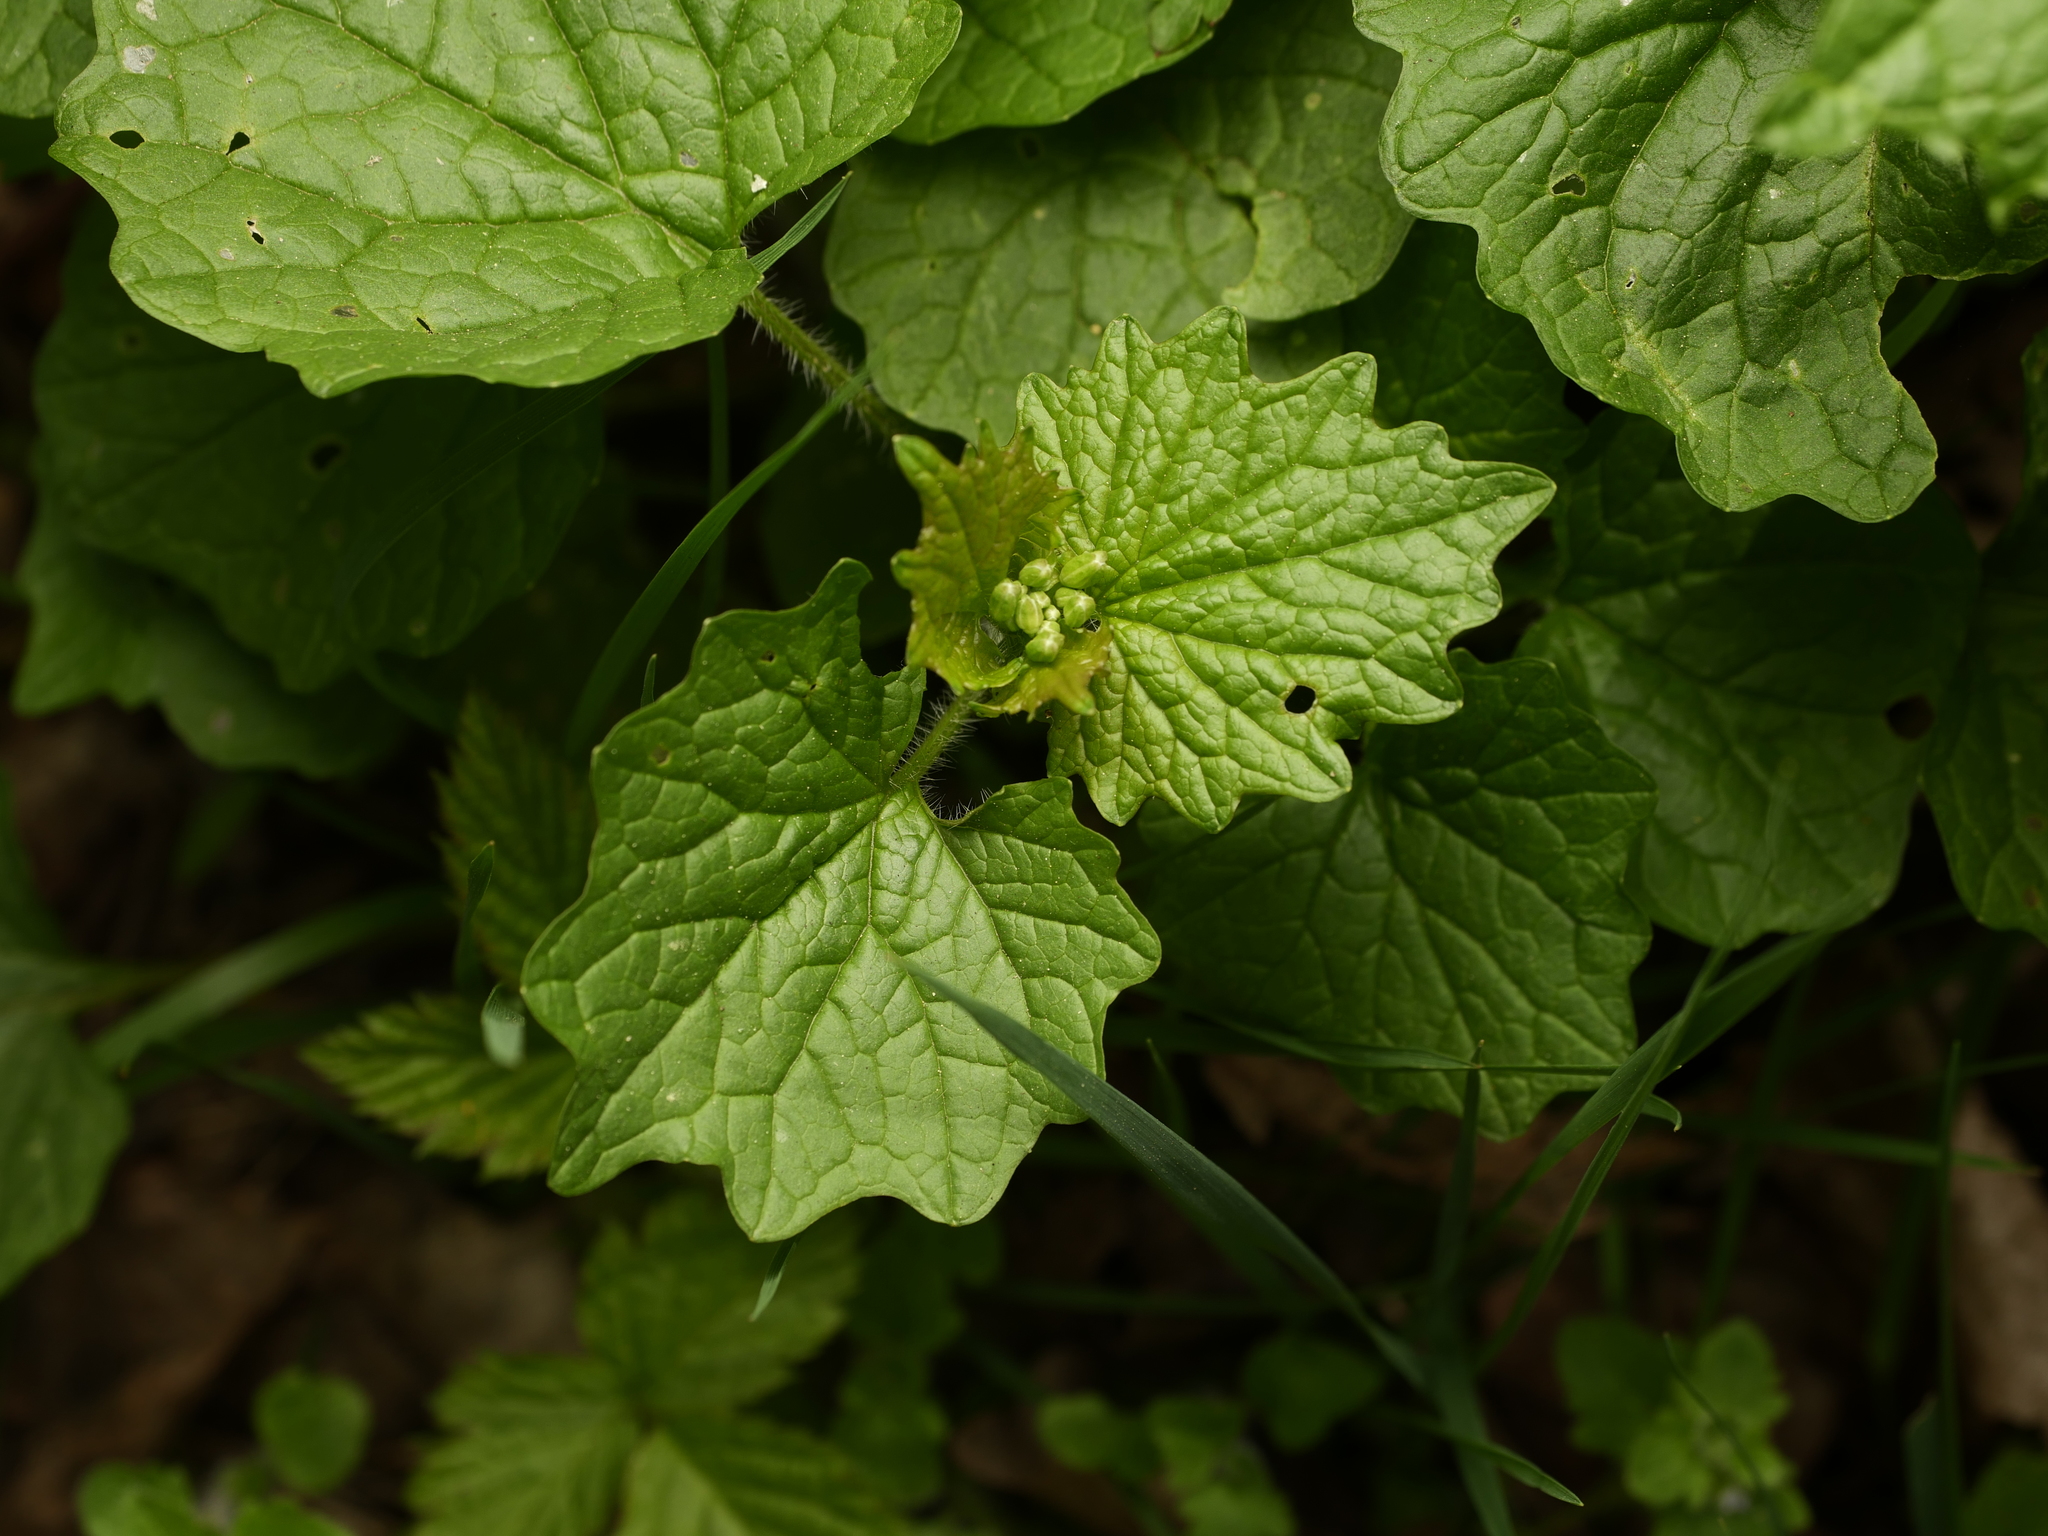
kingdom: Plantae
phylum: Tracheophyta
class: Magnoliopsida
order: Brassicales
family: Brassicaceae
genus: Alliaria
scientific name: Alliaria petiolata
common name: Garlic mustard
